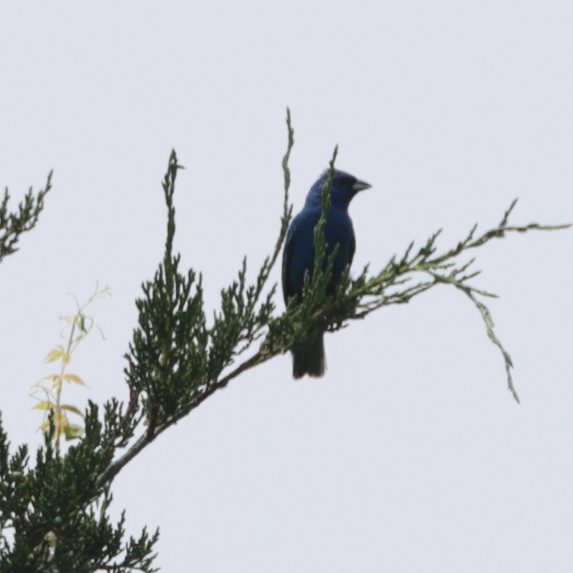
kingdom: Animalia
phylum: Chordata
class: Aves
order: Passeriformes
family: Cardinalidae
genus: Passerina
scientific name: Passerina cyanea
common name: Indigo bunting
